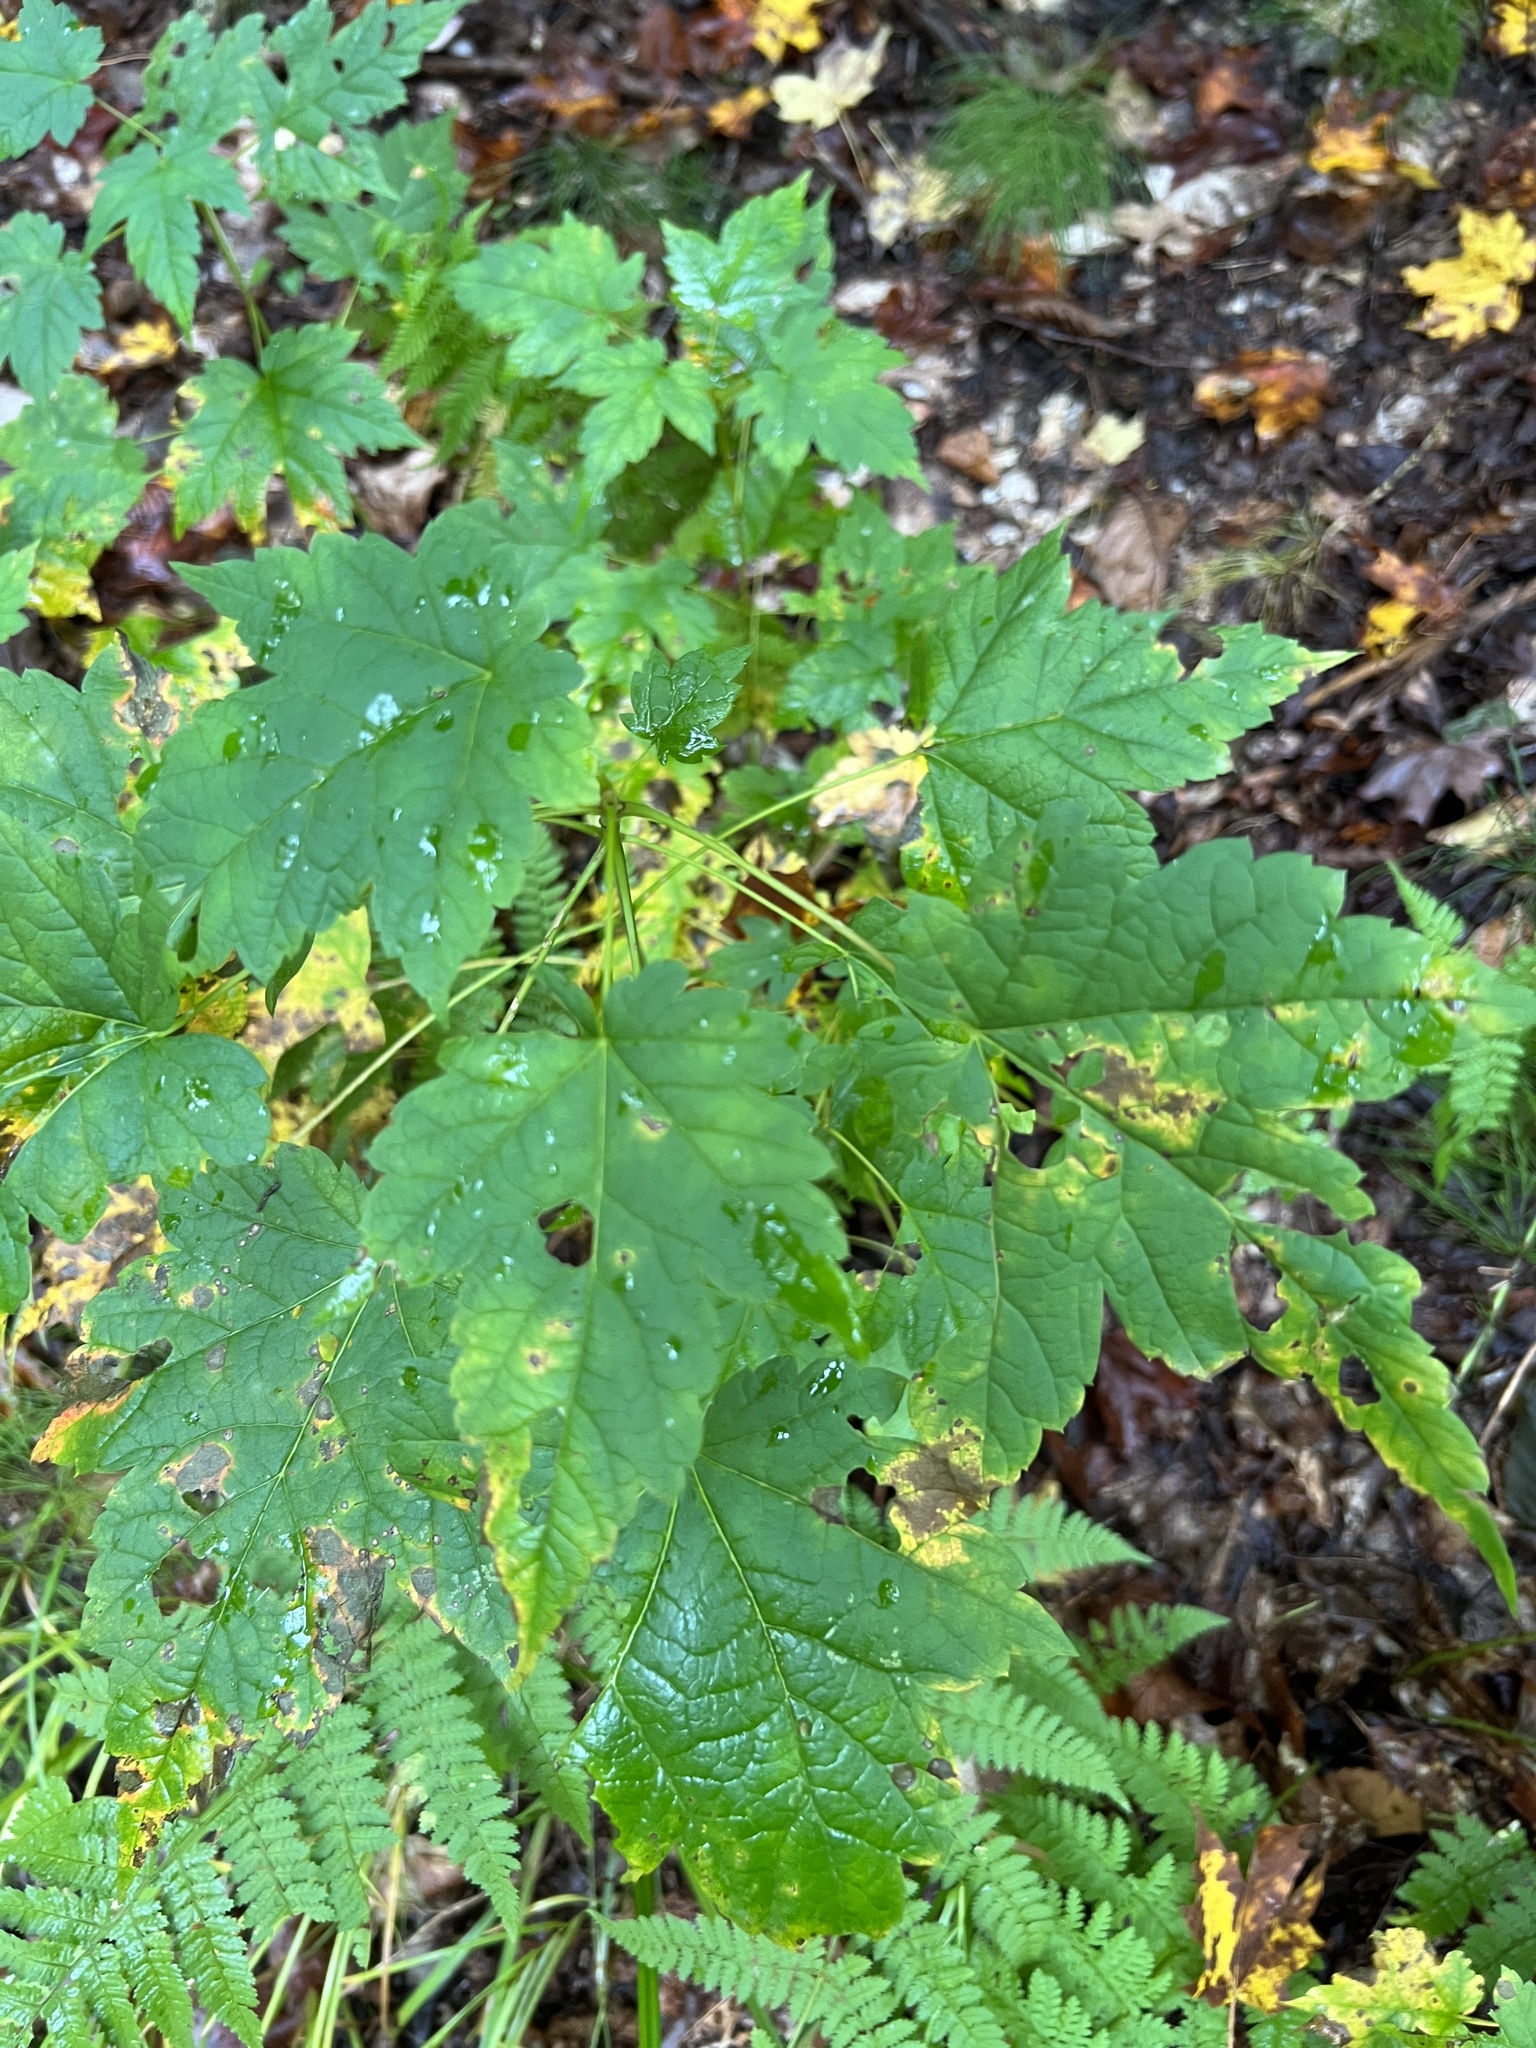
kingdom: Plantae
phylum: Tracheophyta
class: Magnoliopsida
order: Sapindales
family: Sapindaceae
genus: Acer
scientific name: Acer spicatum
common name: Mountain maple
